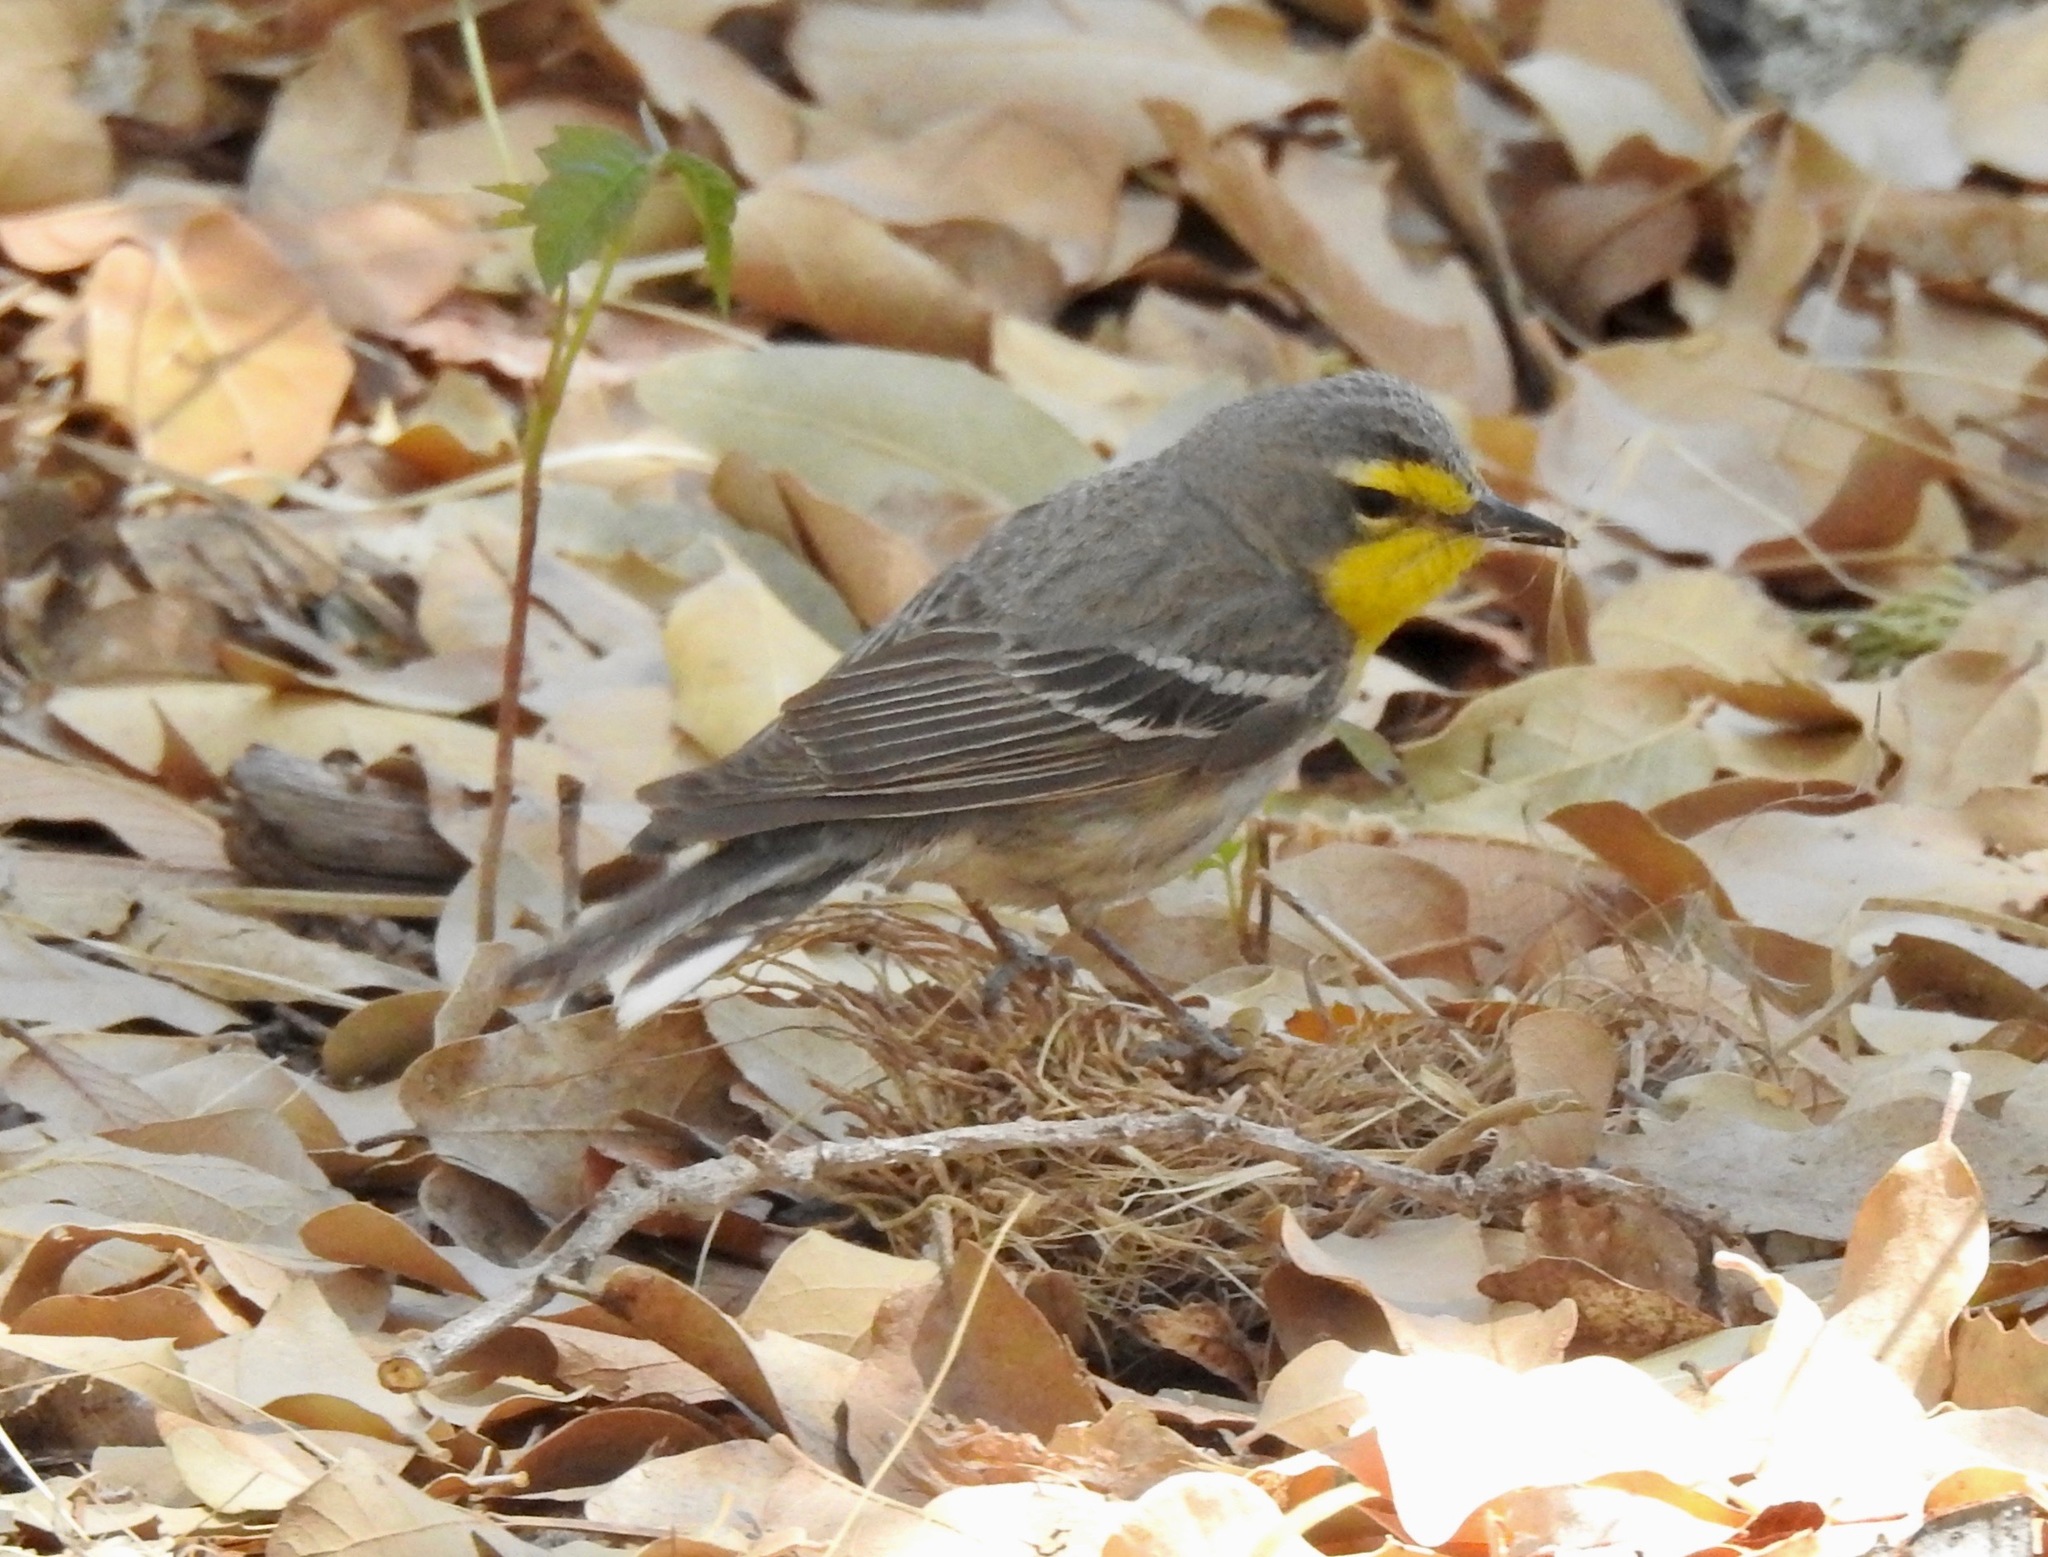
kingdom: Animalia
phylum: Chordata
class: Aves
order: Passeriformes
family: Parulidae
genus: Setophaga
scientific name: Setophaga graciae
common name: Grace's warbler
